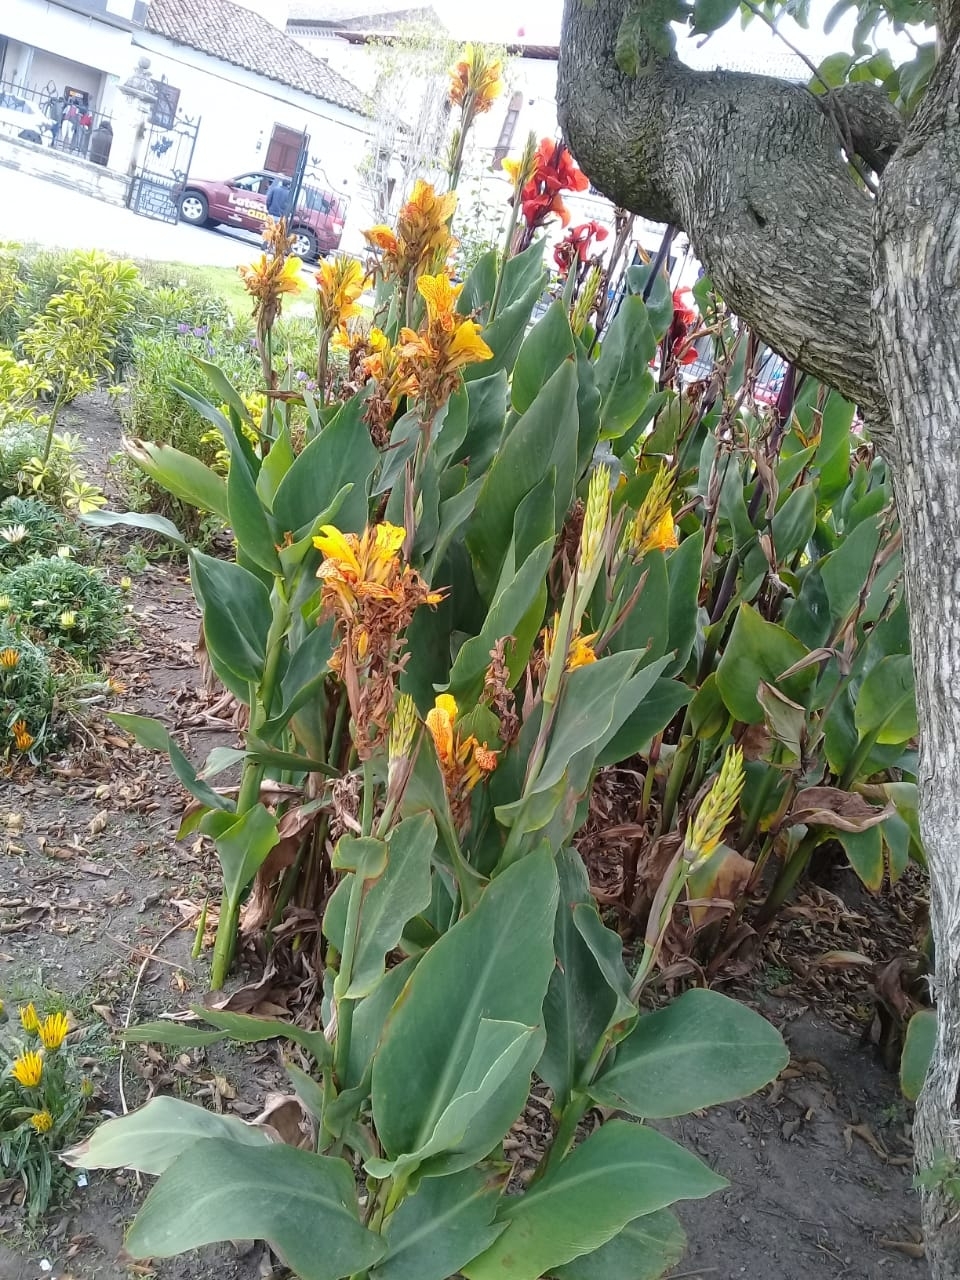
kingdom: Plantae
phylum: Tracheophyta
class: Liliopsida
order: Zingiberales
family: Cannaceae
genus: Canna
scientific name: Canna hybrida
